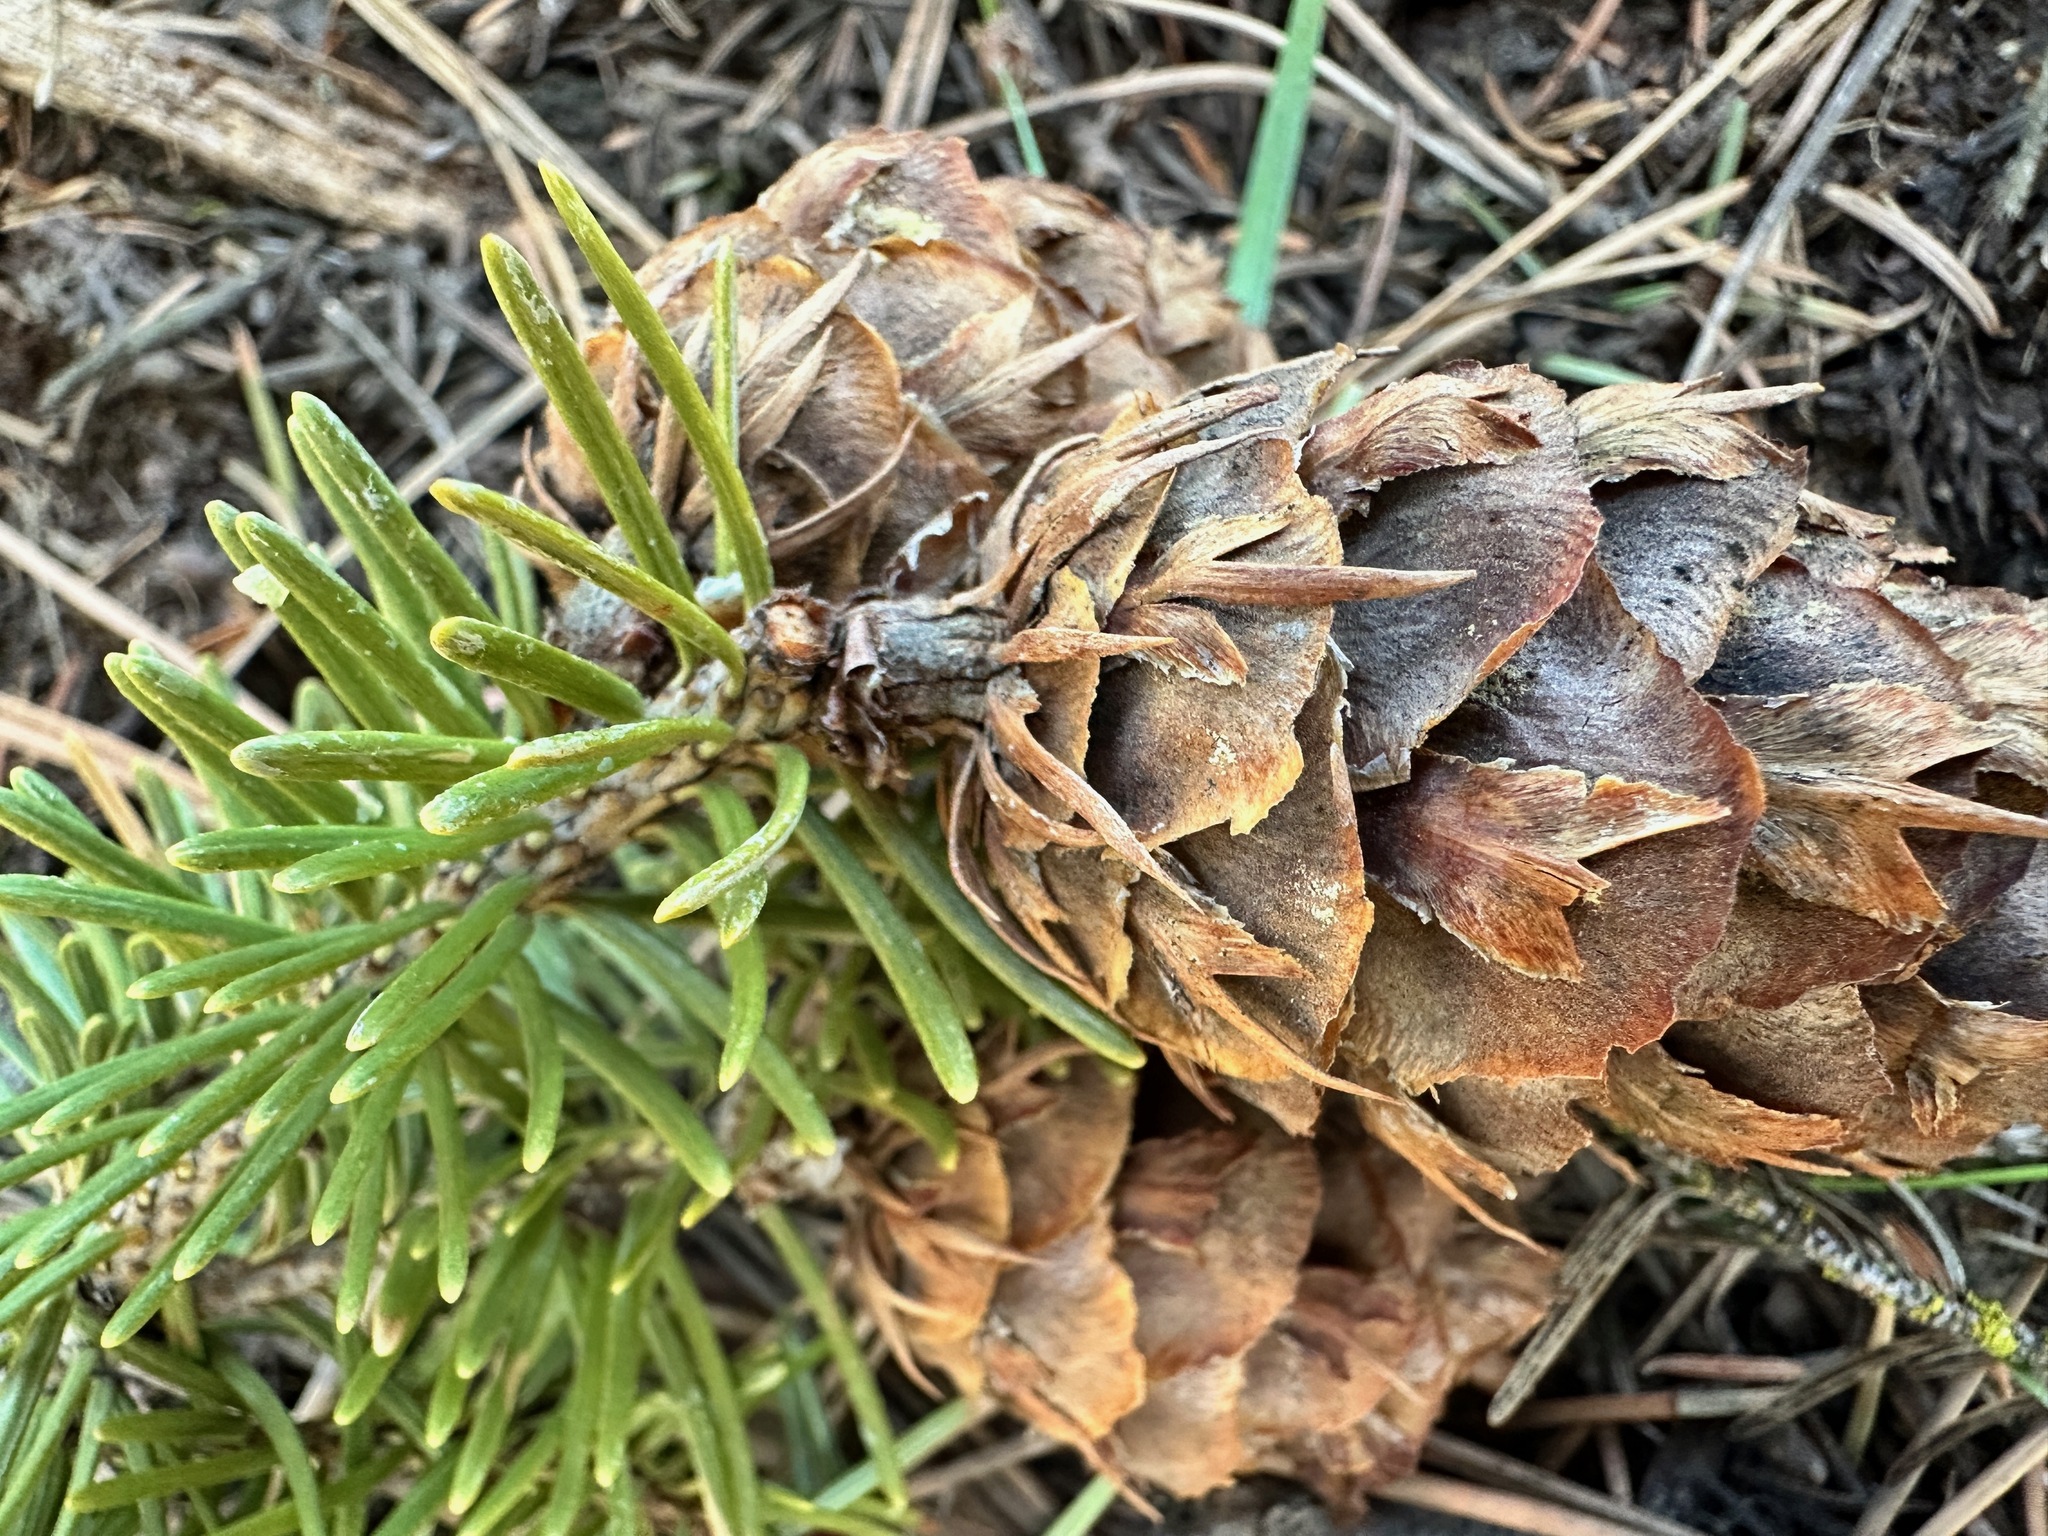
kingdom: Plantae
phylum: Tracheophyta
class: Pinopsida
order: Pinales
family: Pinaceae
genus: Pseudotsuga
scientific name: Pseudotsuga menziesii
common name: Douglas fir
